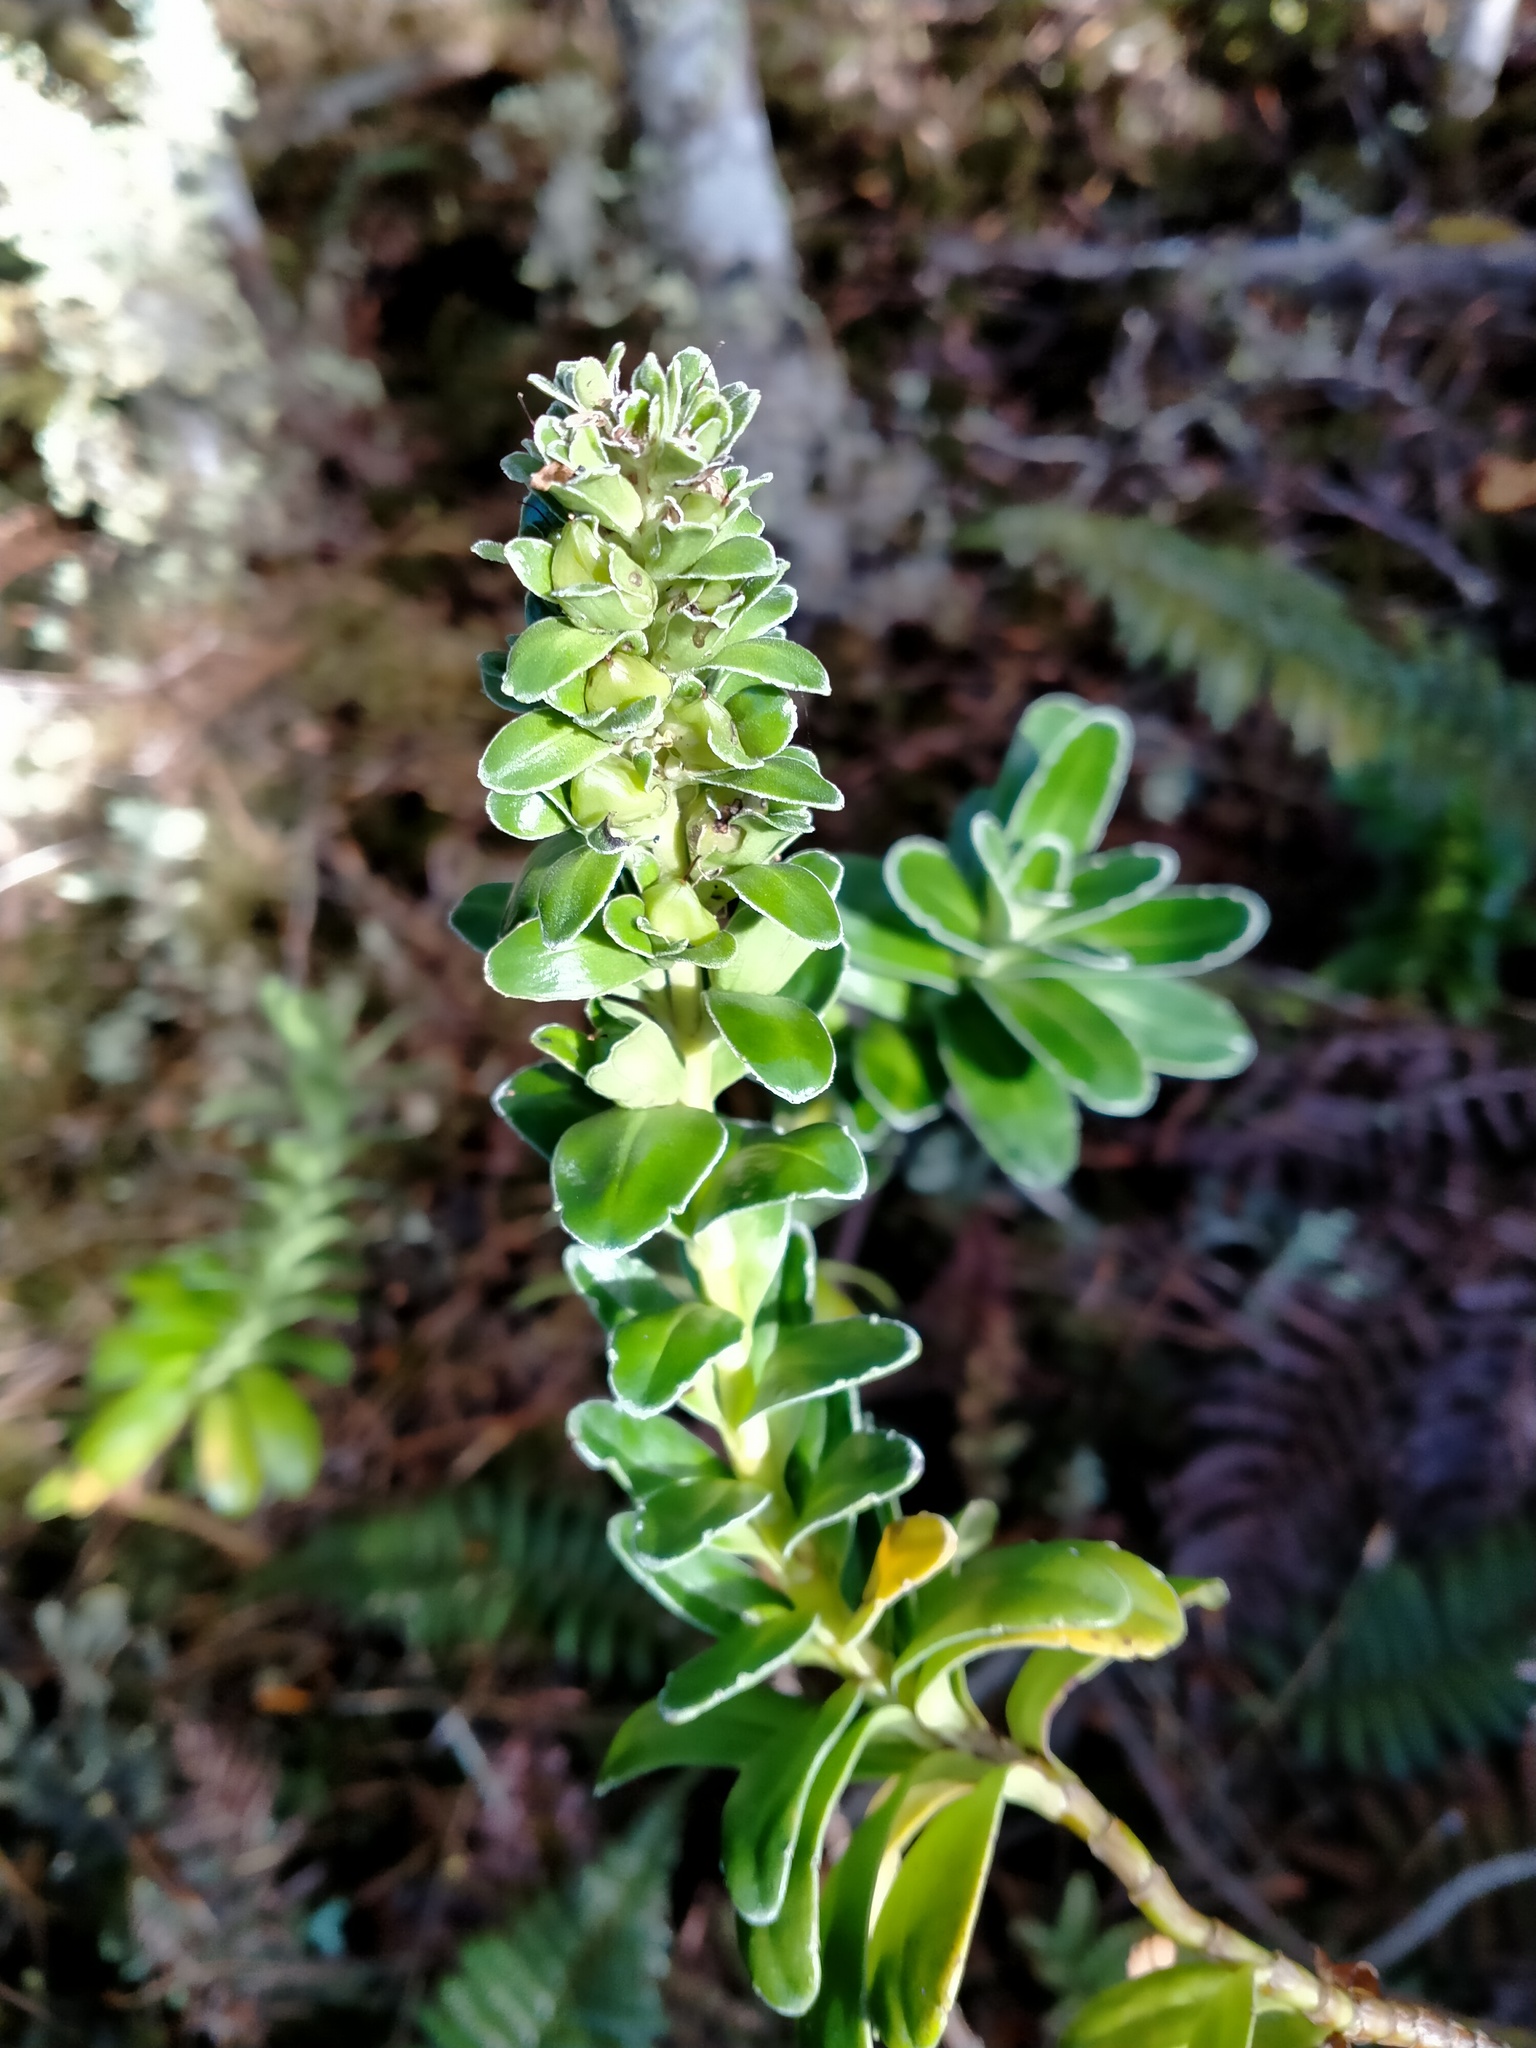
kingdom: Plantae
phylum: Tracheophyta
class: Magnoliopsida
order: Lamiales
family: Plantaginaceae
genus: Veronica
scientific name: Veronica benthamii
